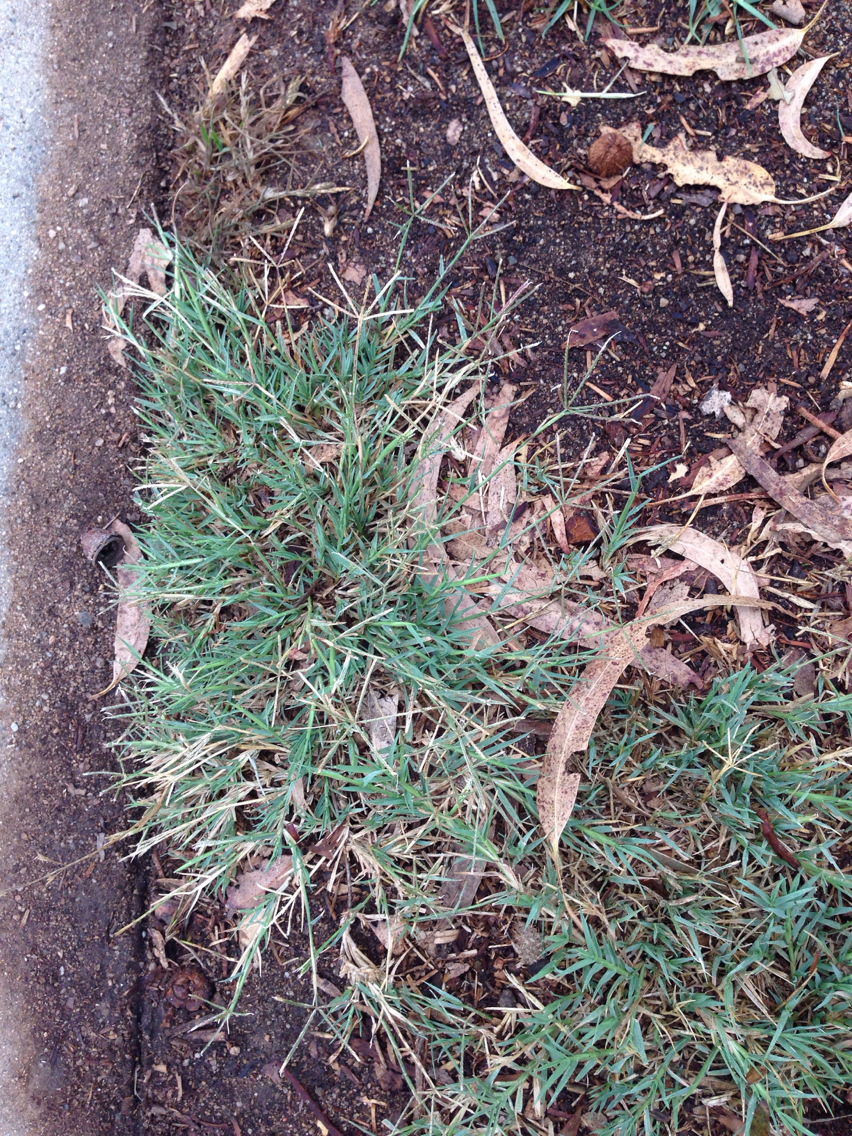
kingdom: Plantae
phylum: Tracheophyta
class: Liliopsida
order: Poales
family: Poaceae
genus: Cynodon
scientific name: Cynodon dactylon
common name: Bermuda grass
